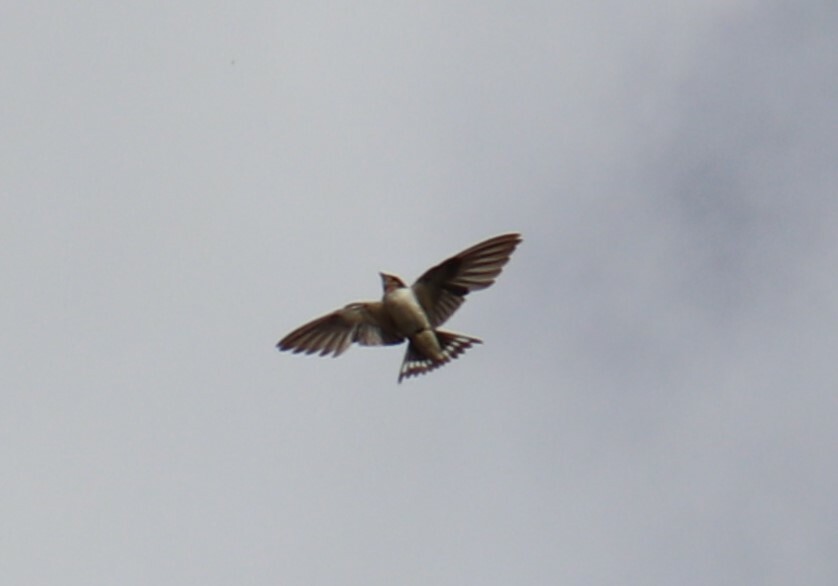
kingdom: Animalia
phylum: Chordata
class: Aves
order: Passeriformes
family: Hirundinidae
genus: Hirundo
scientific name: Hirundo rustica
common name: Barn swallow
